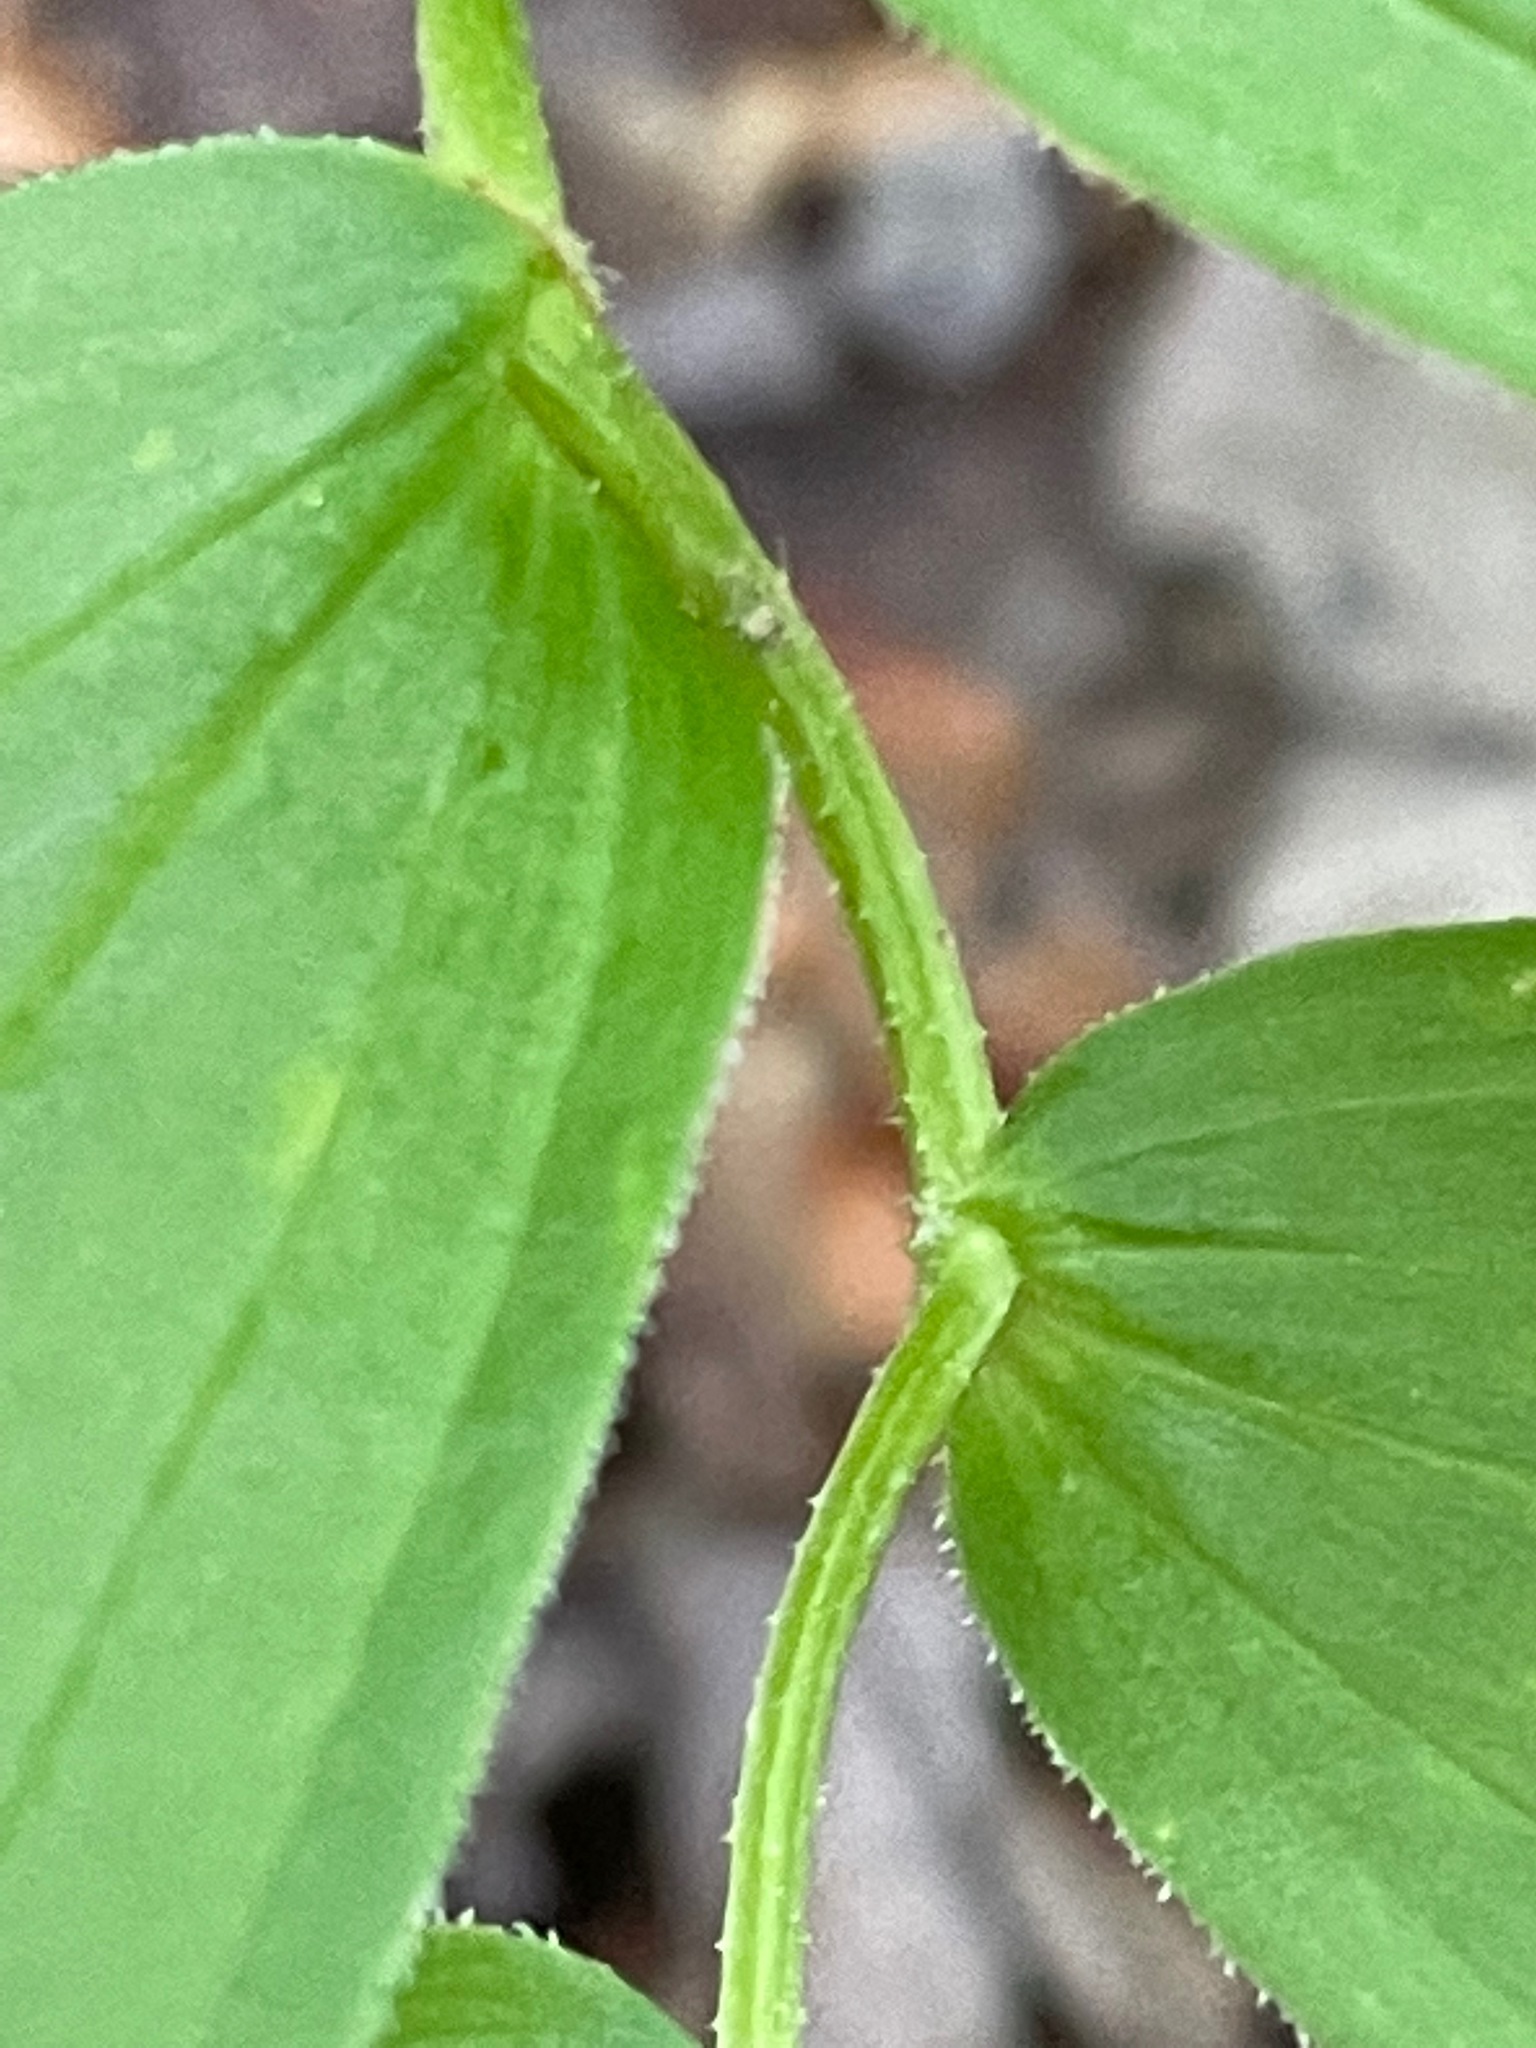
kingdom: Plantae
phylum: Tracheophyta
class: Liliopsida
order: Liliales
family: Liliaceae
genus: Streptopus
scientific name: Streptopus lanceolatus
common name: Rose mandarin
